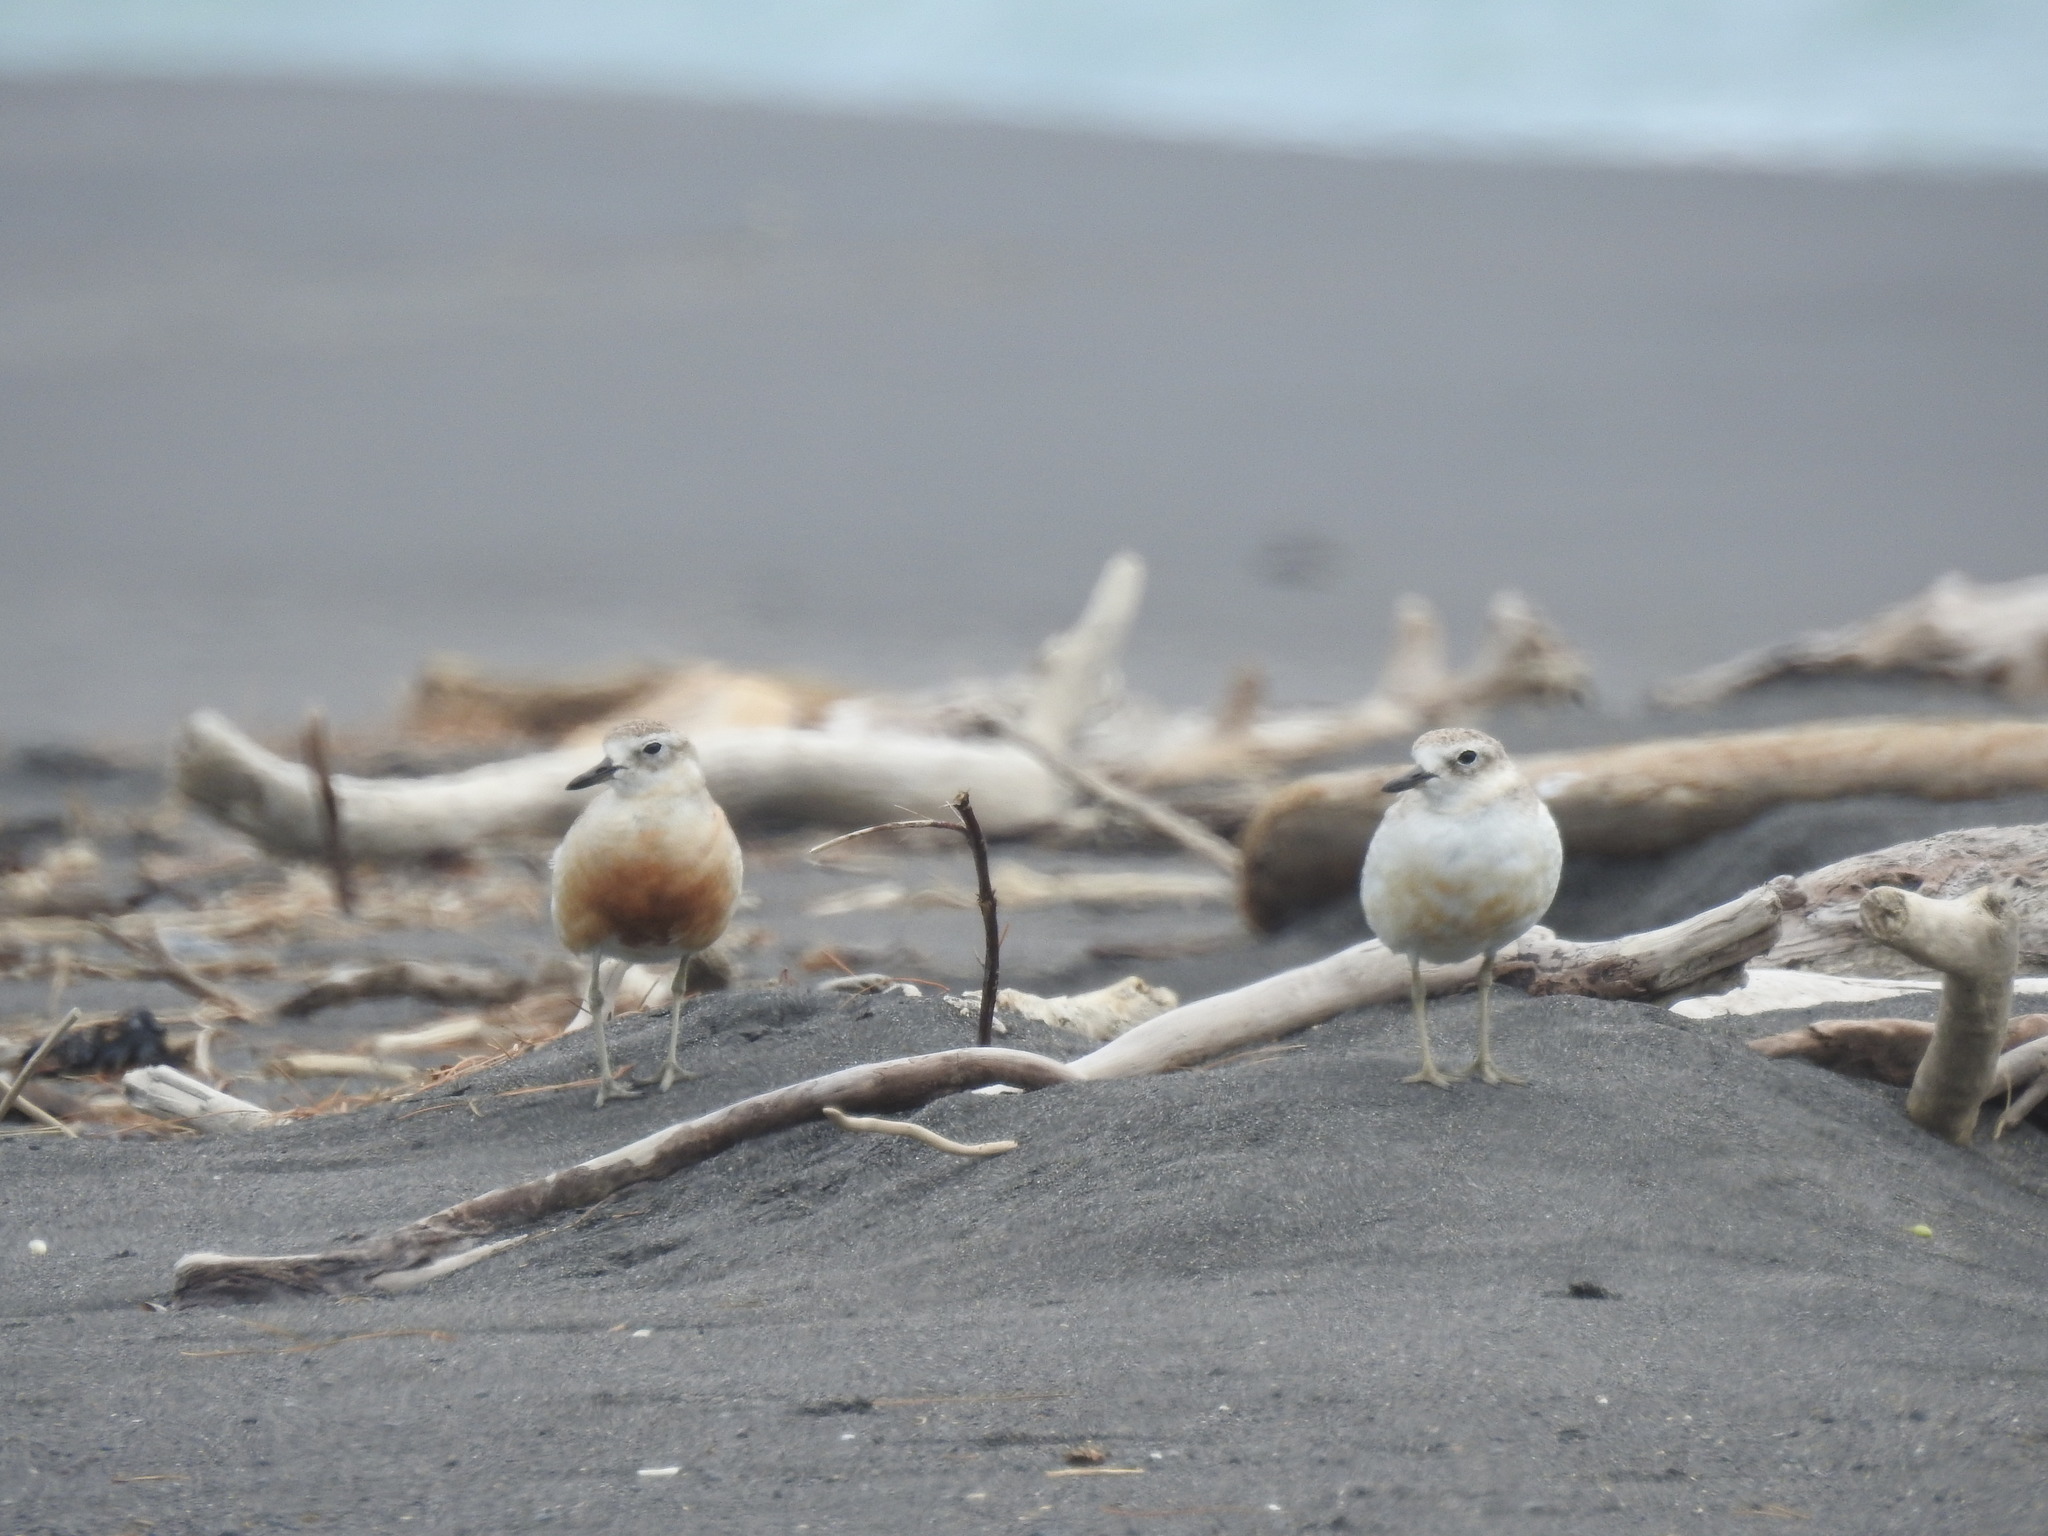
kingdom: Animalia
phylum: Chordata
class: Aves
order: Charadriiformes
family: Charadriidae
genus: Anarhynchus
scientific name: Anarhynchus
